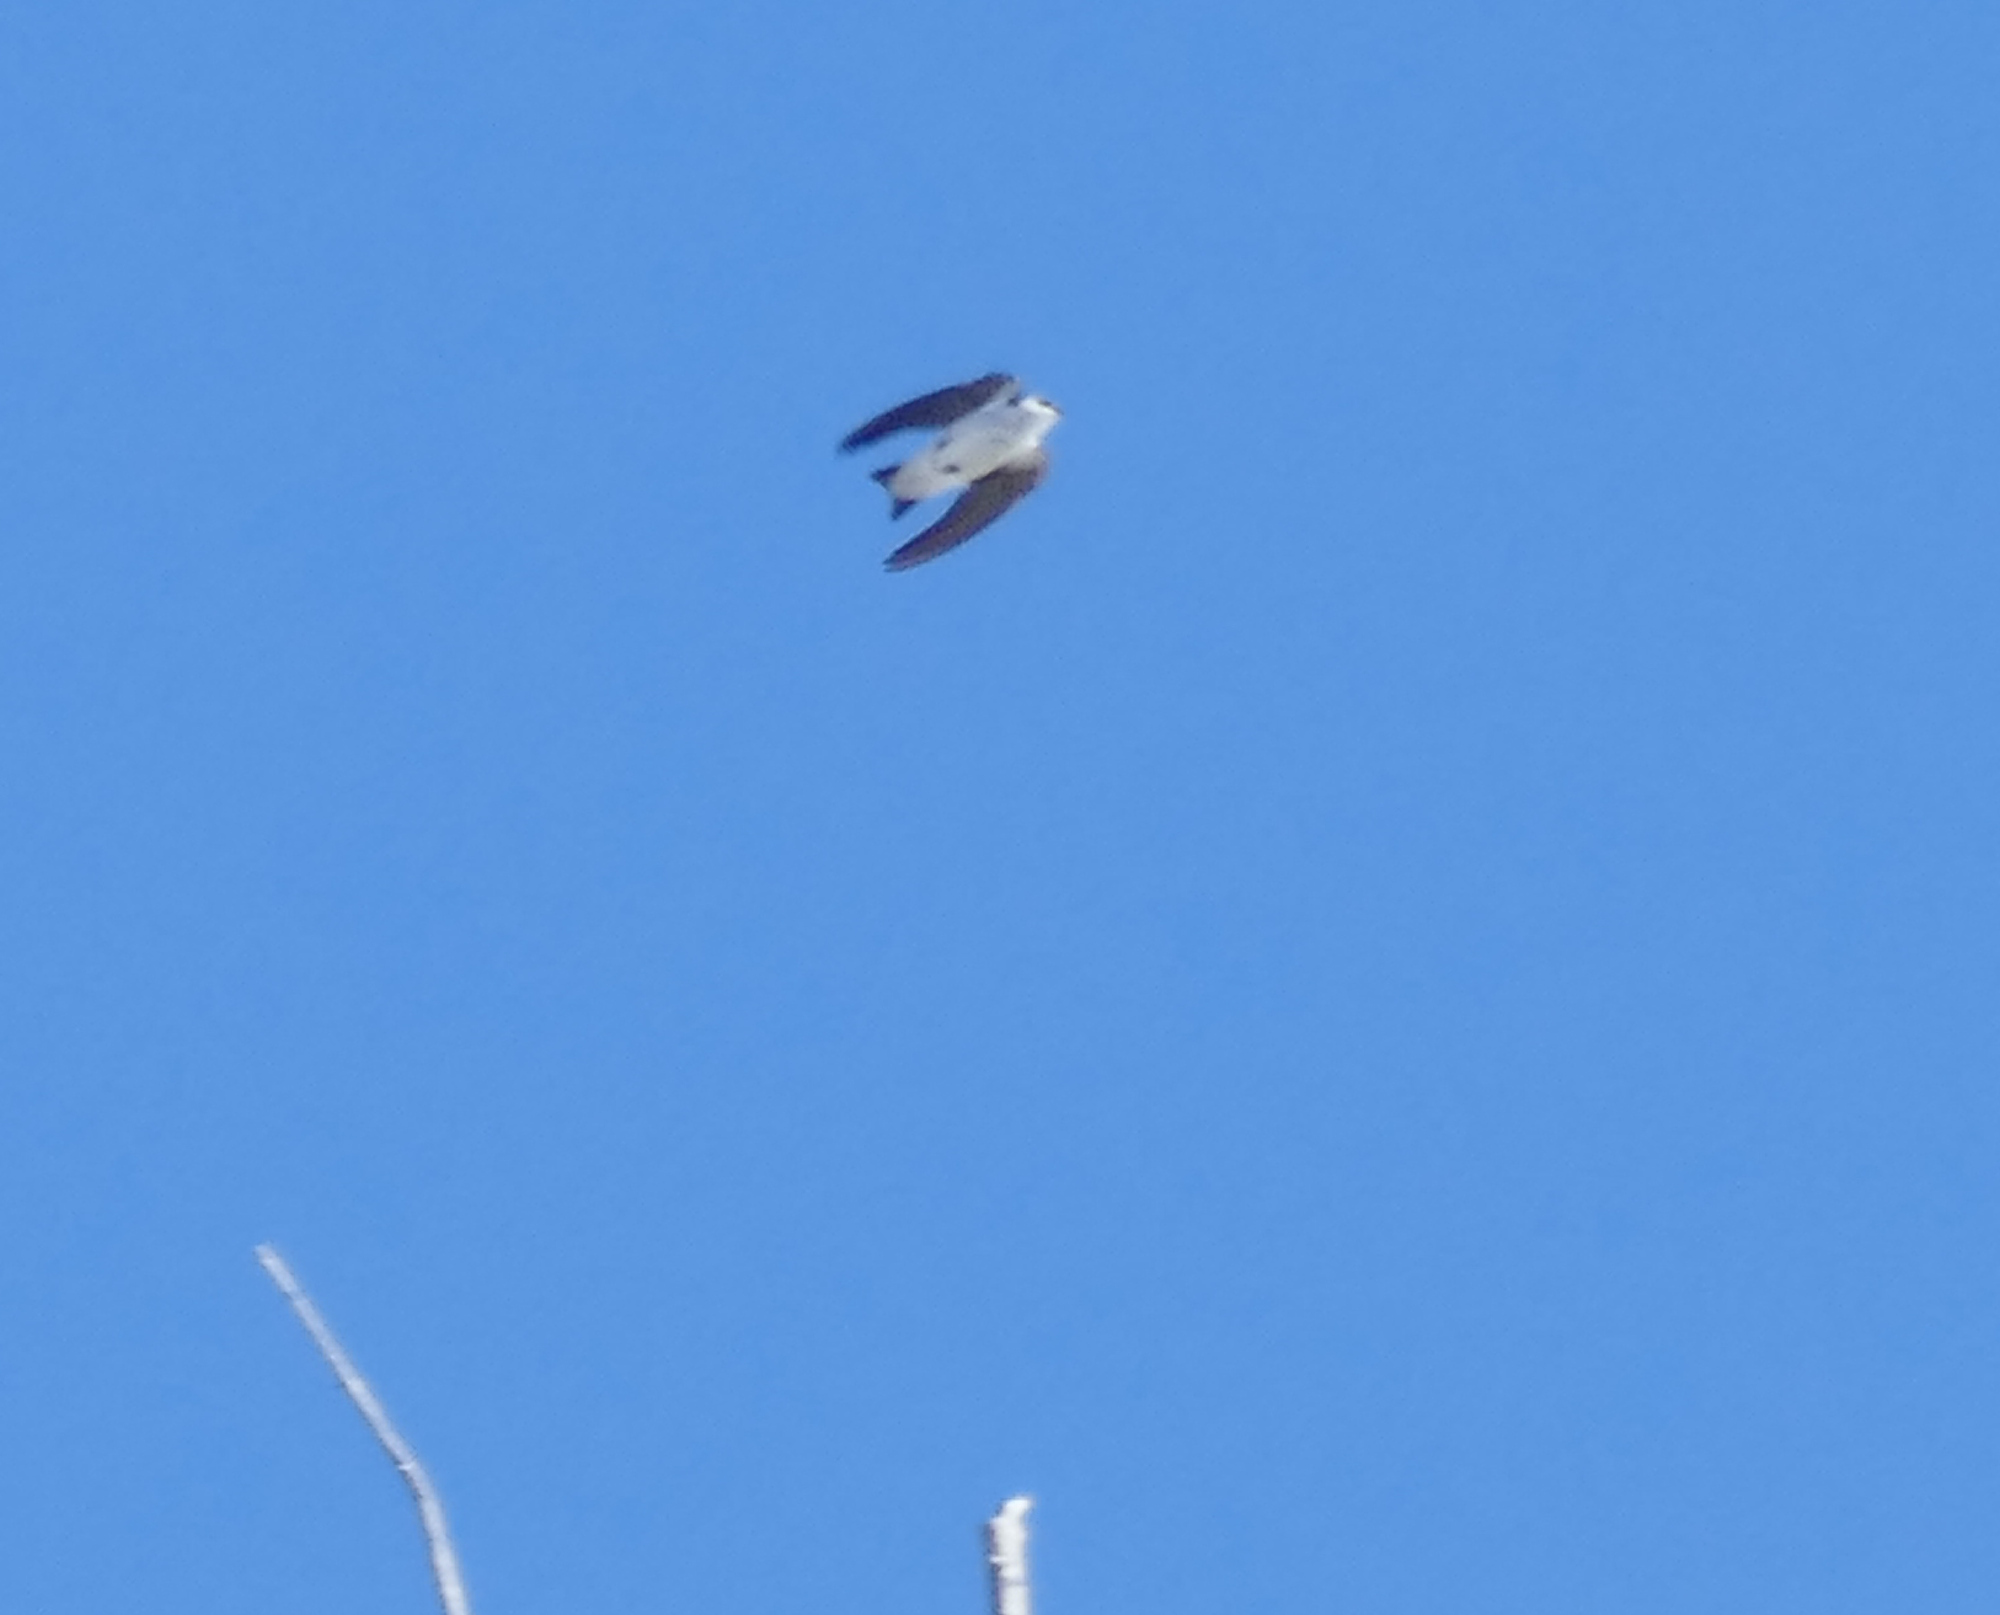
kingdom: Animalia
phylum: Chordata
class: Aves
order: Passeriformes
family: Hirundinidae
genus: Tachycineta
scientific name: Tachycineta thalassina
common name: Violet-green swallow
